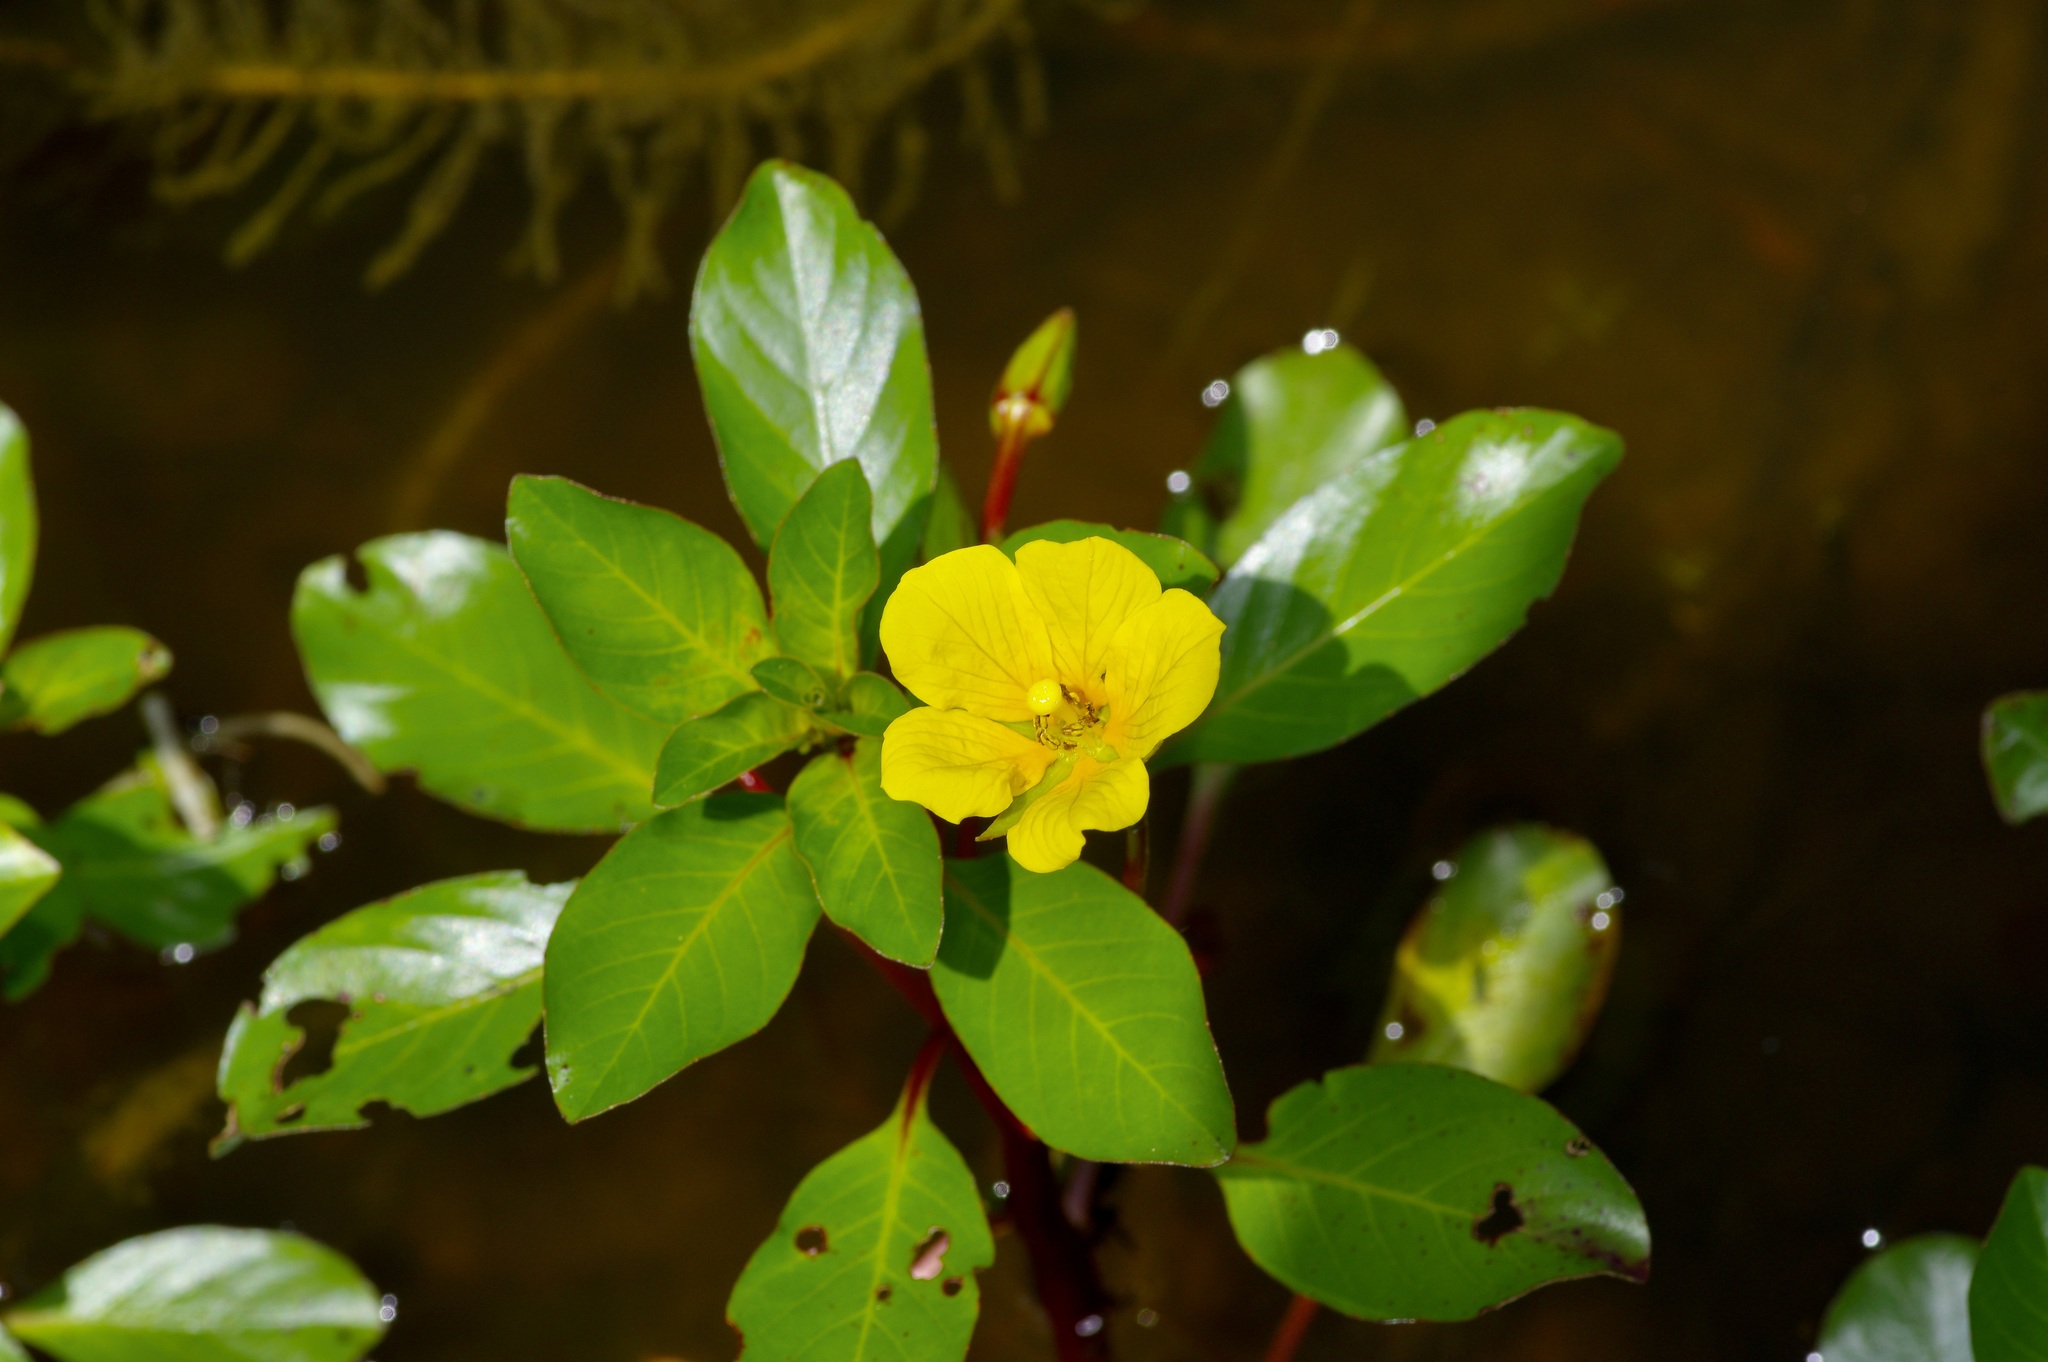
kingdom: Plantae
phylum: Tracheophyta
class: Magnoliopsida
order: Myrtales
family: Onagraceae
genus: Ludwigia
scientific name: Ludwigia peploides
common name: Floating primrose-willow
